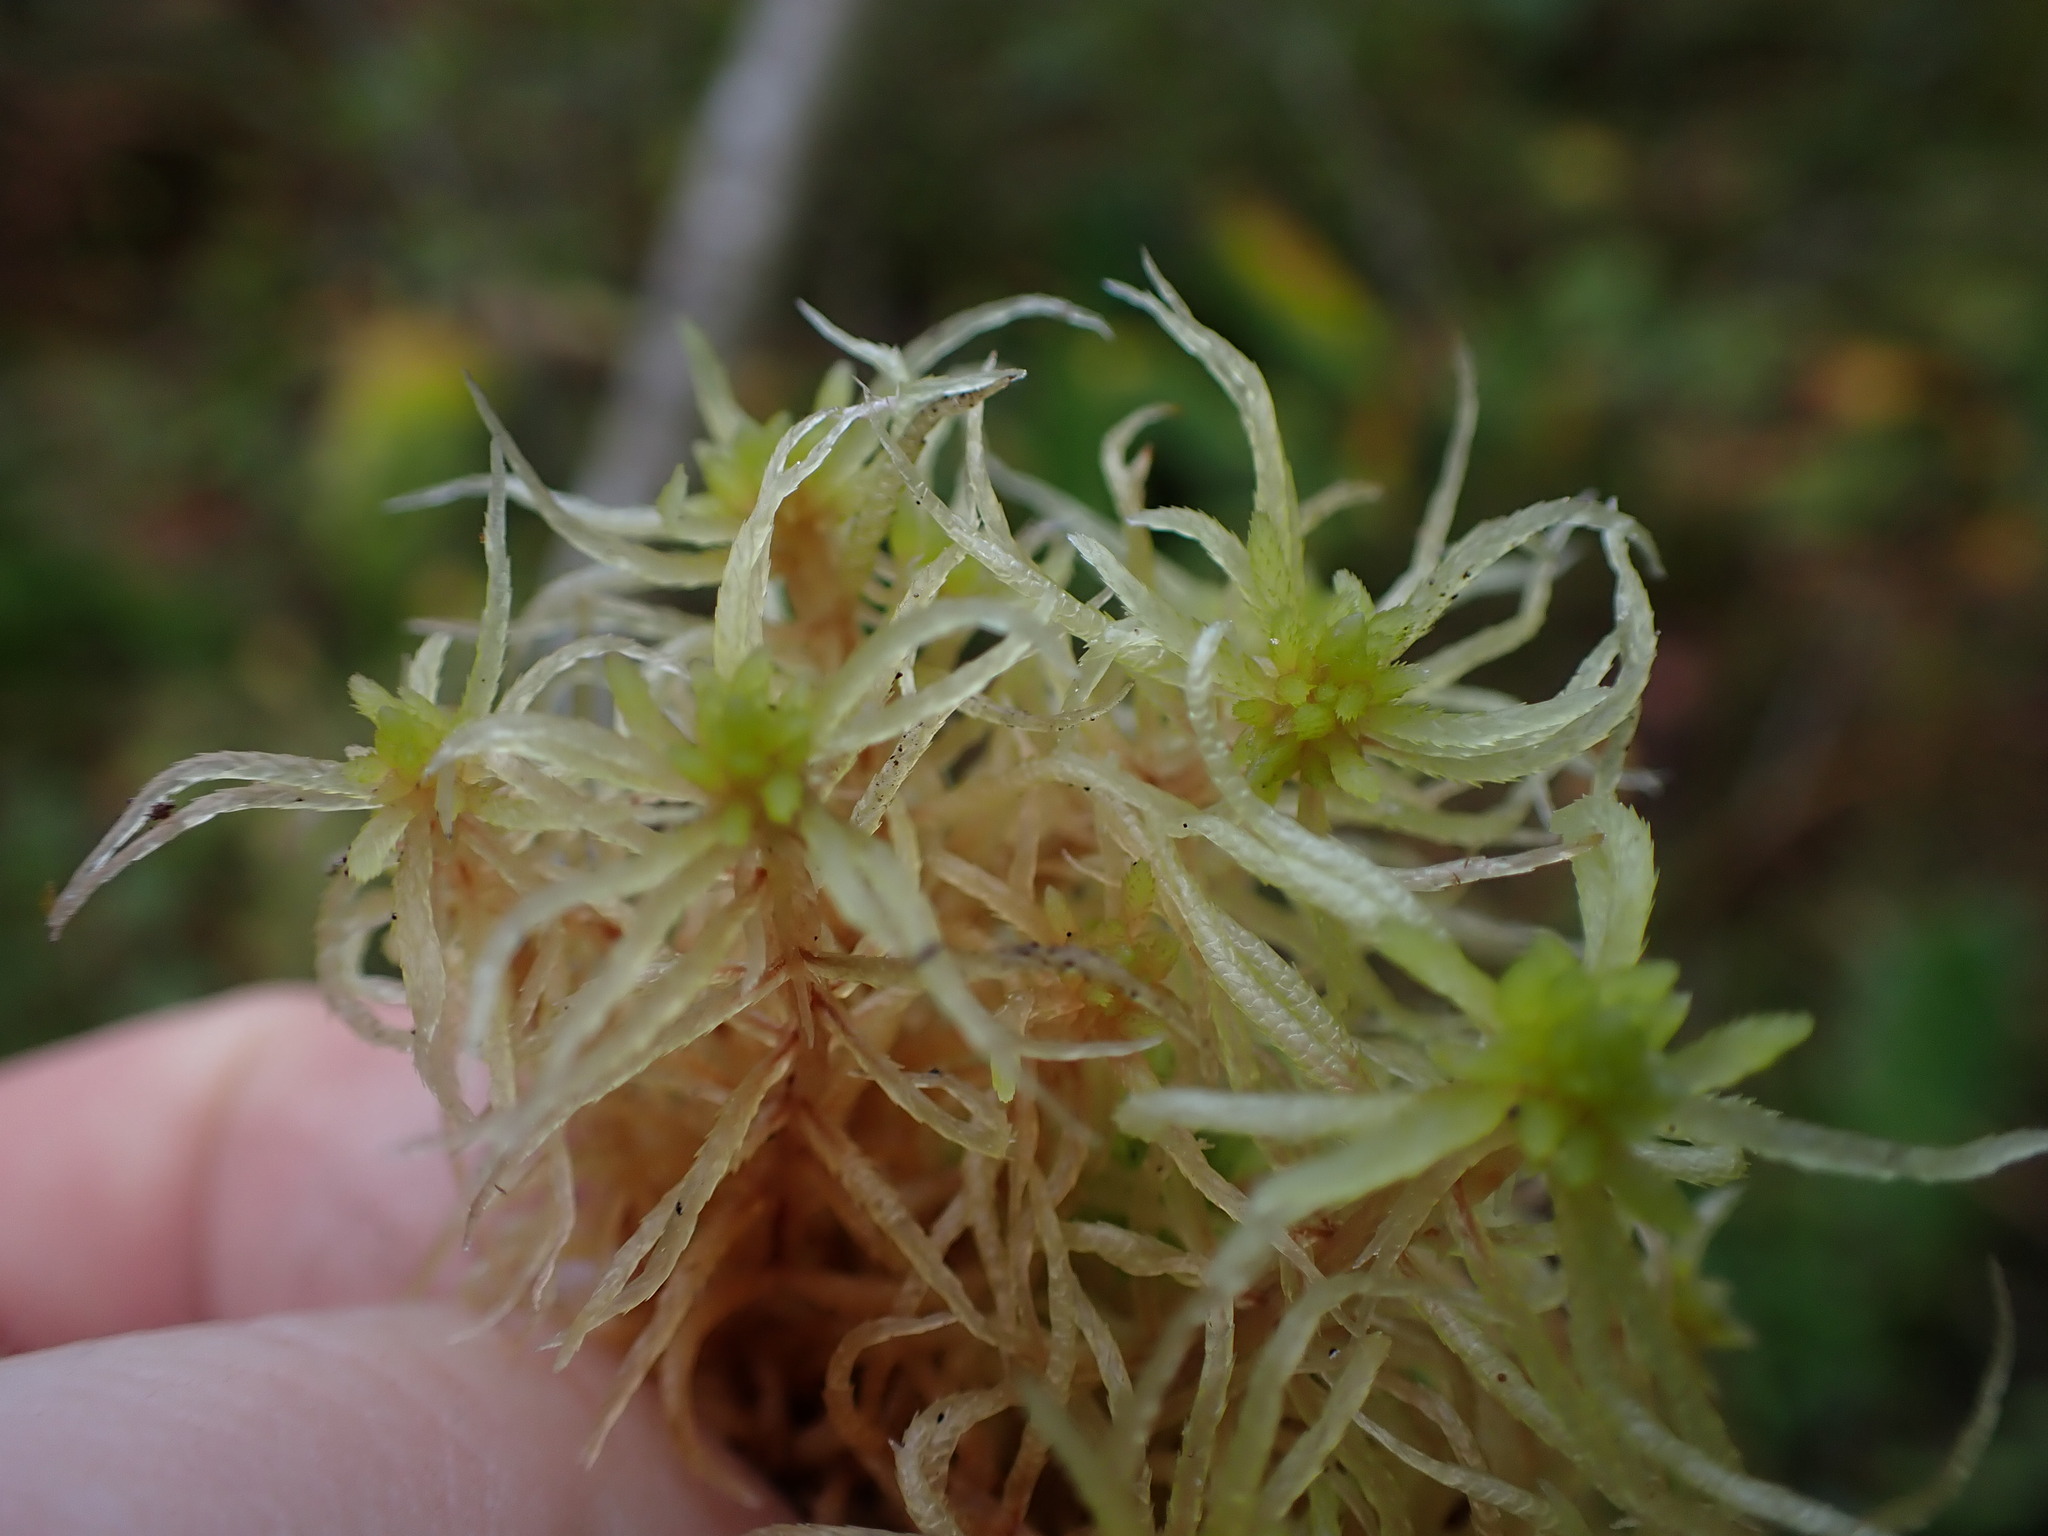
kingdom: Plantae
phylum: Bryophyta
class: Sphagnopsida
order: Sphagnales
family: Sphagnaceae
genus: Sphagnum
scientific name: Sphagnum teres
